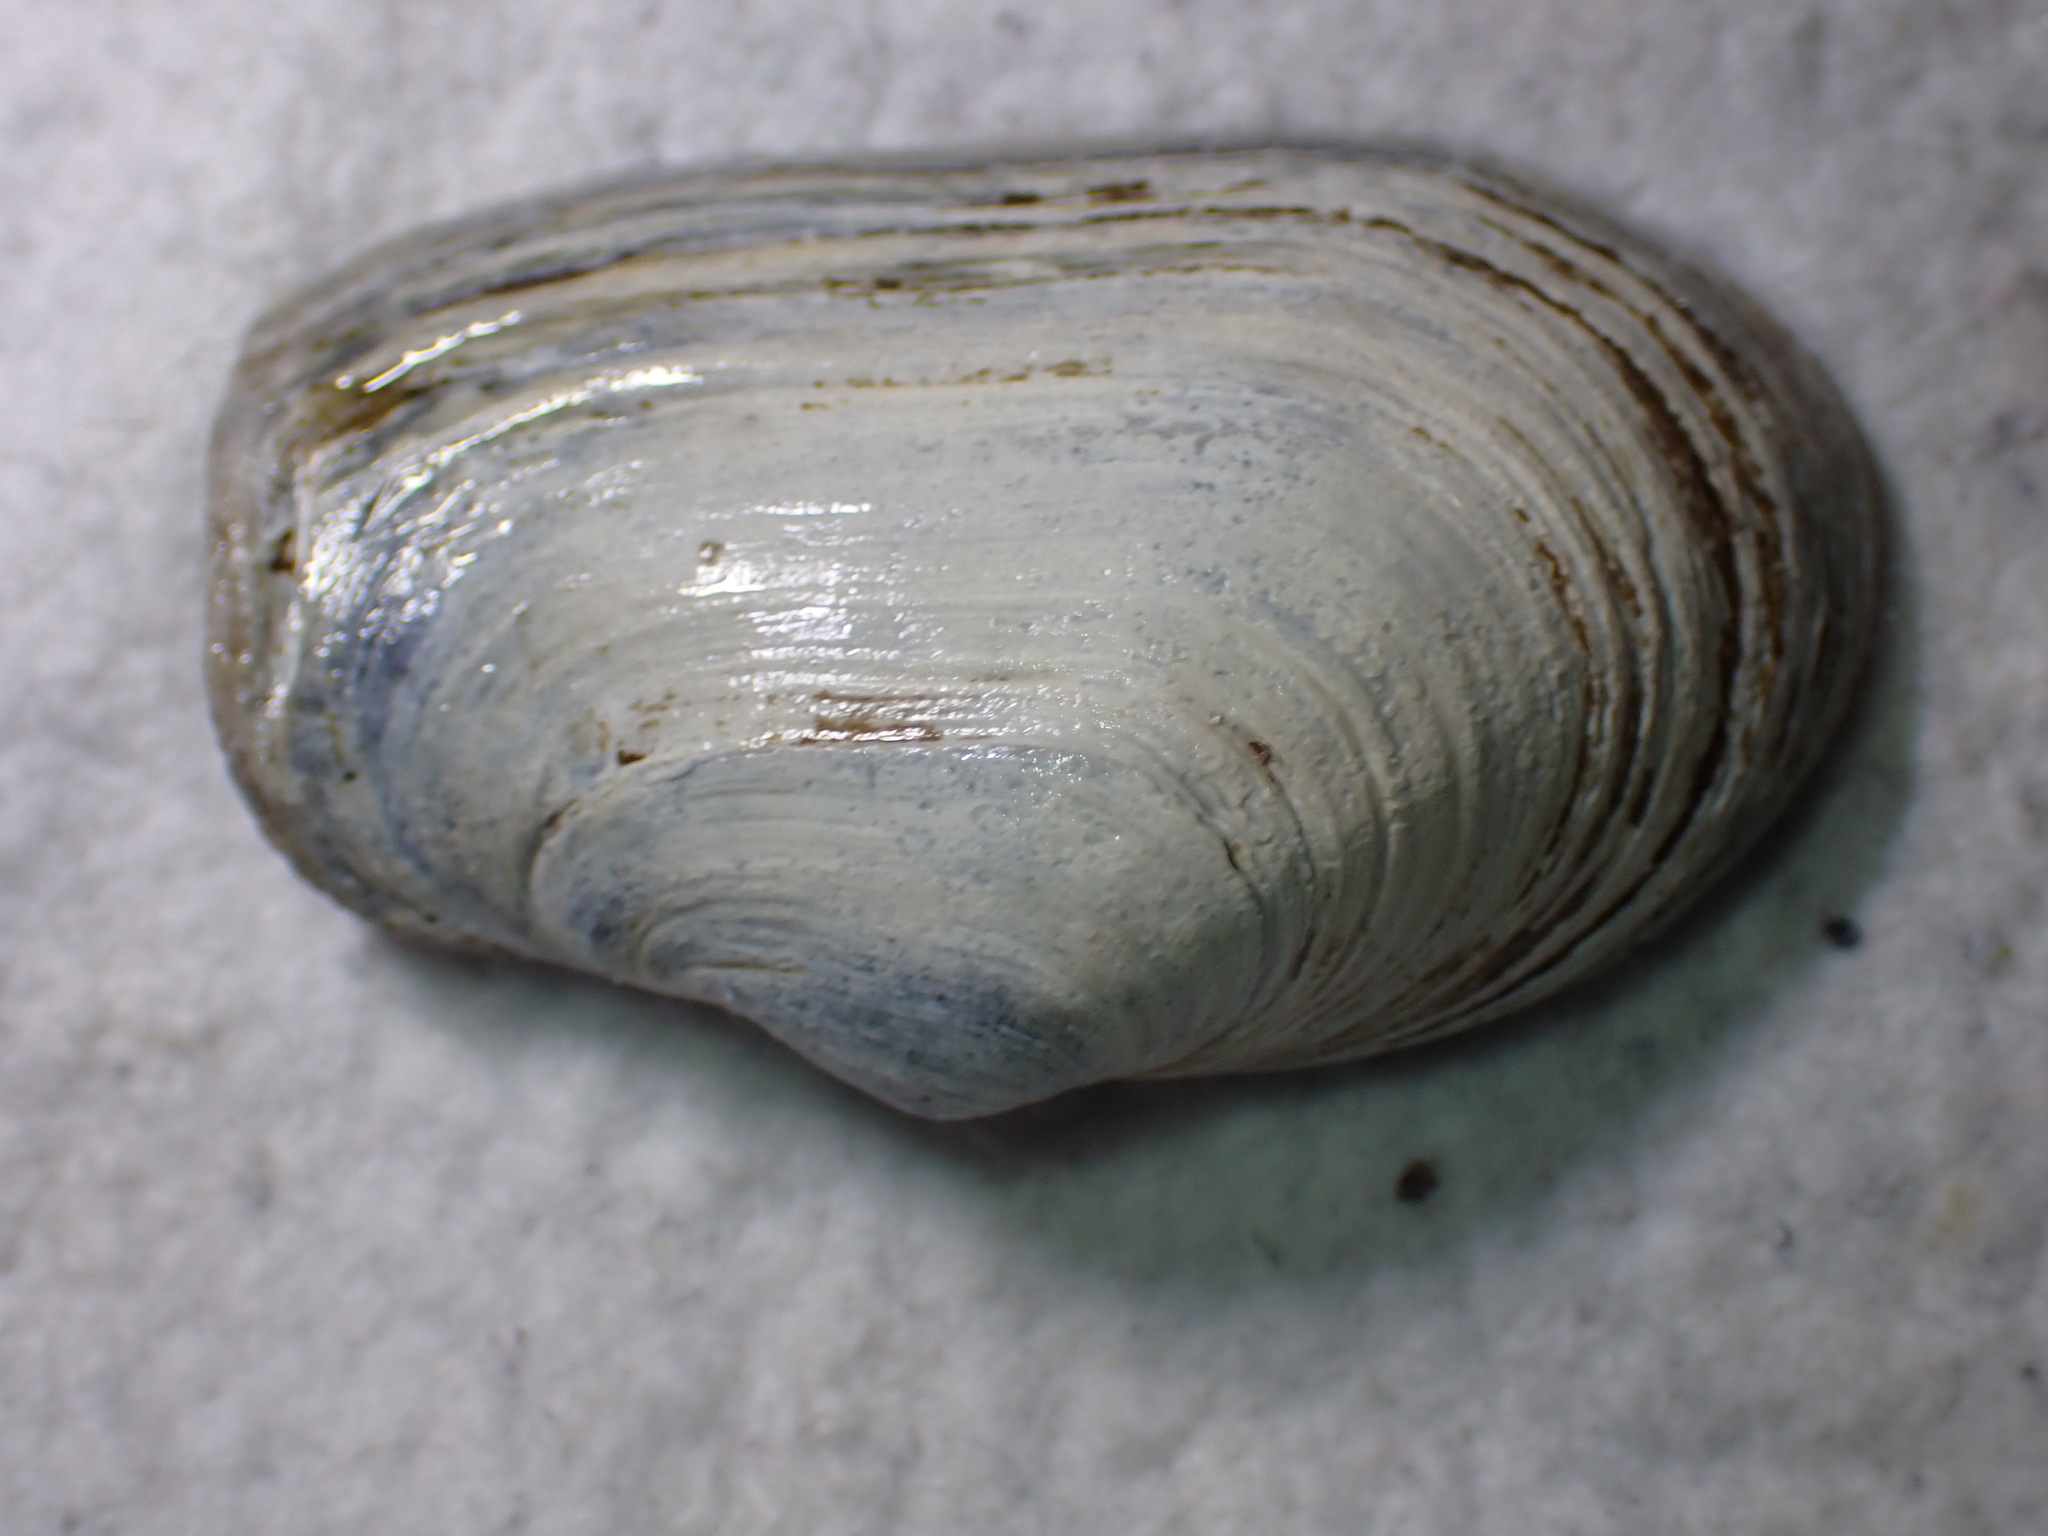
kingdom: Animalia
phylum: Mollusca
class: Bivalvia
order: Myida
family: Myidae
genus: Mya
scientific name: Mya truncata
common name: Blunt gaper
